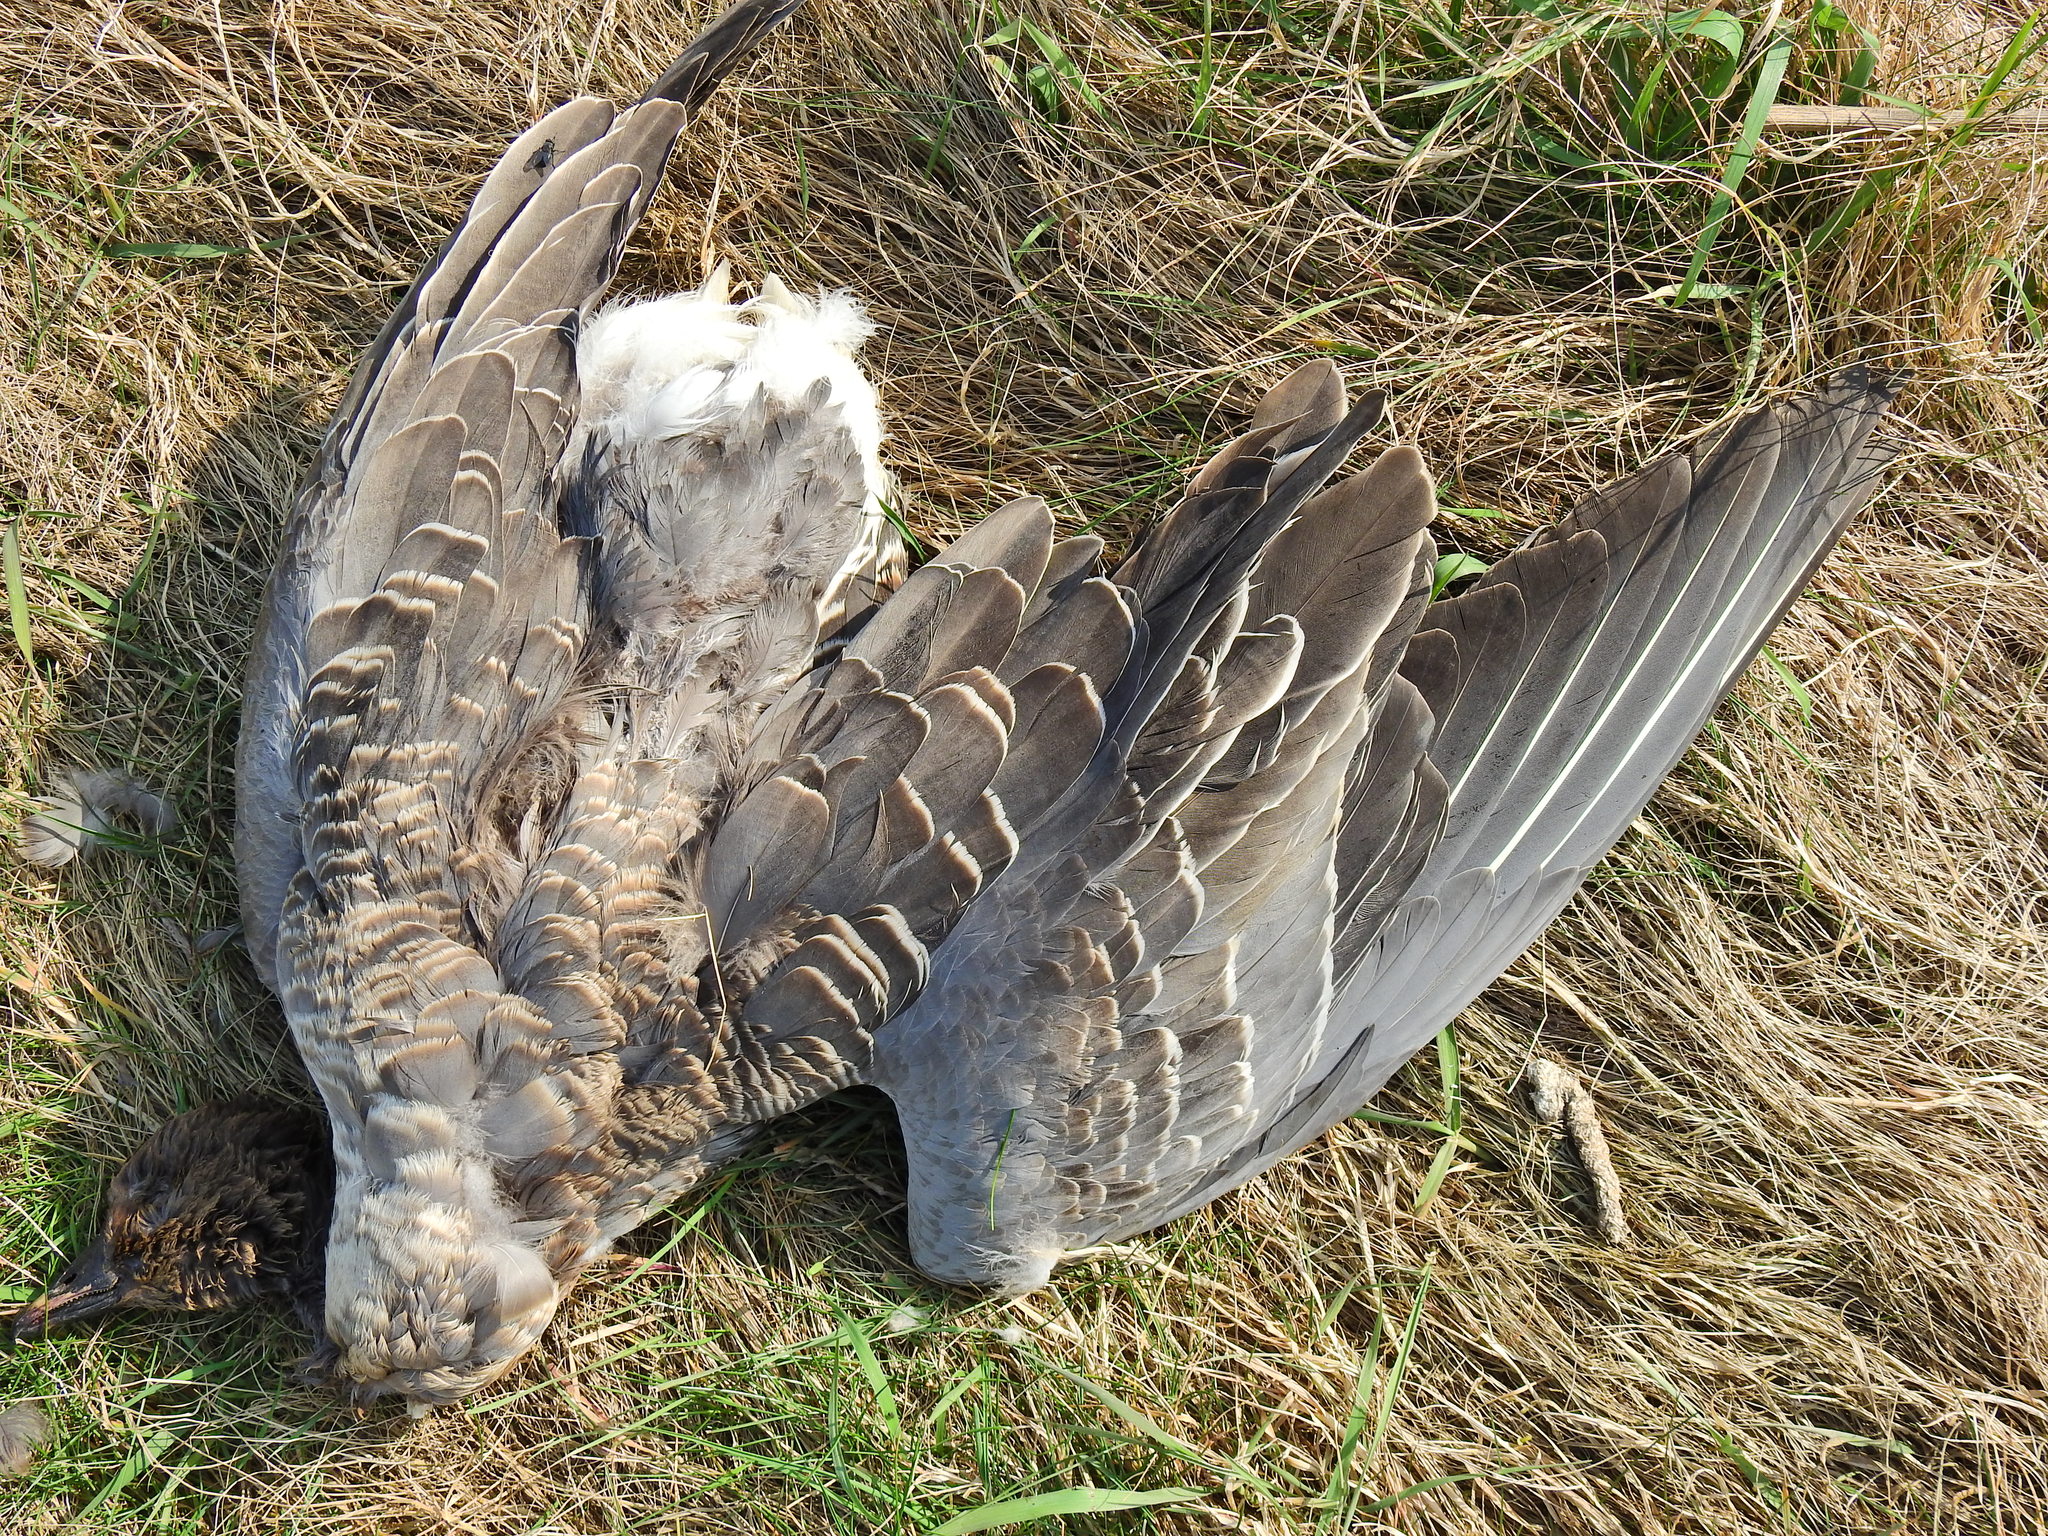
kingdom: Animalia
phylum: Chordata
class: Aves
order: Anseriformes
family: Anatidae
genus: Anser
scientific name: Anser brachyrhynchus
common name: Pink-footed goose
